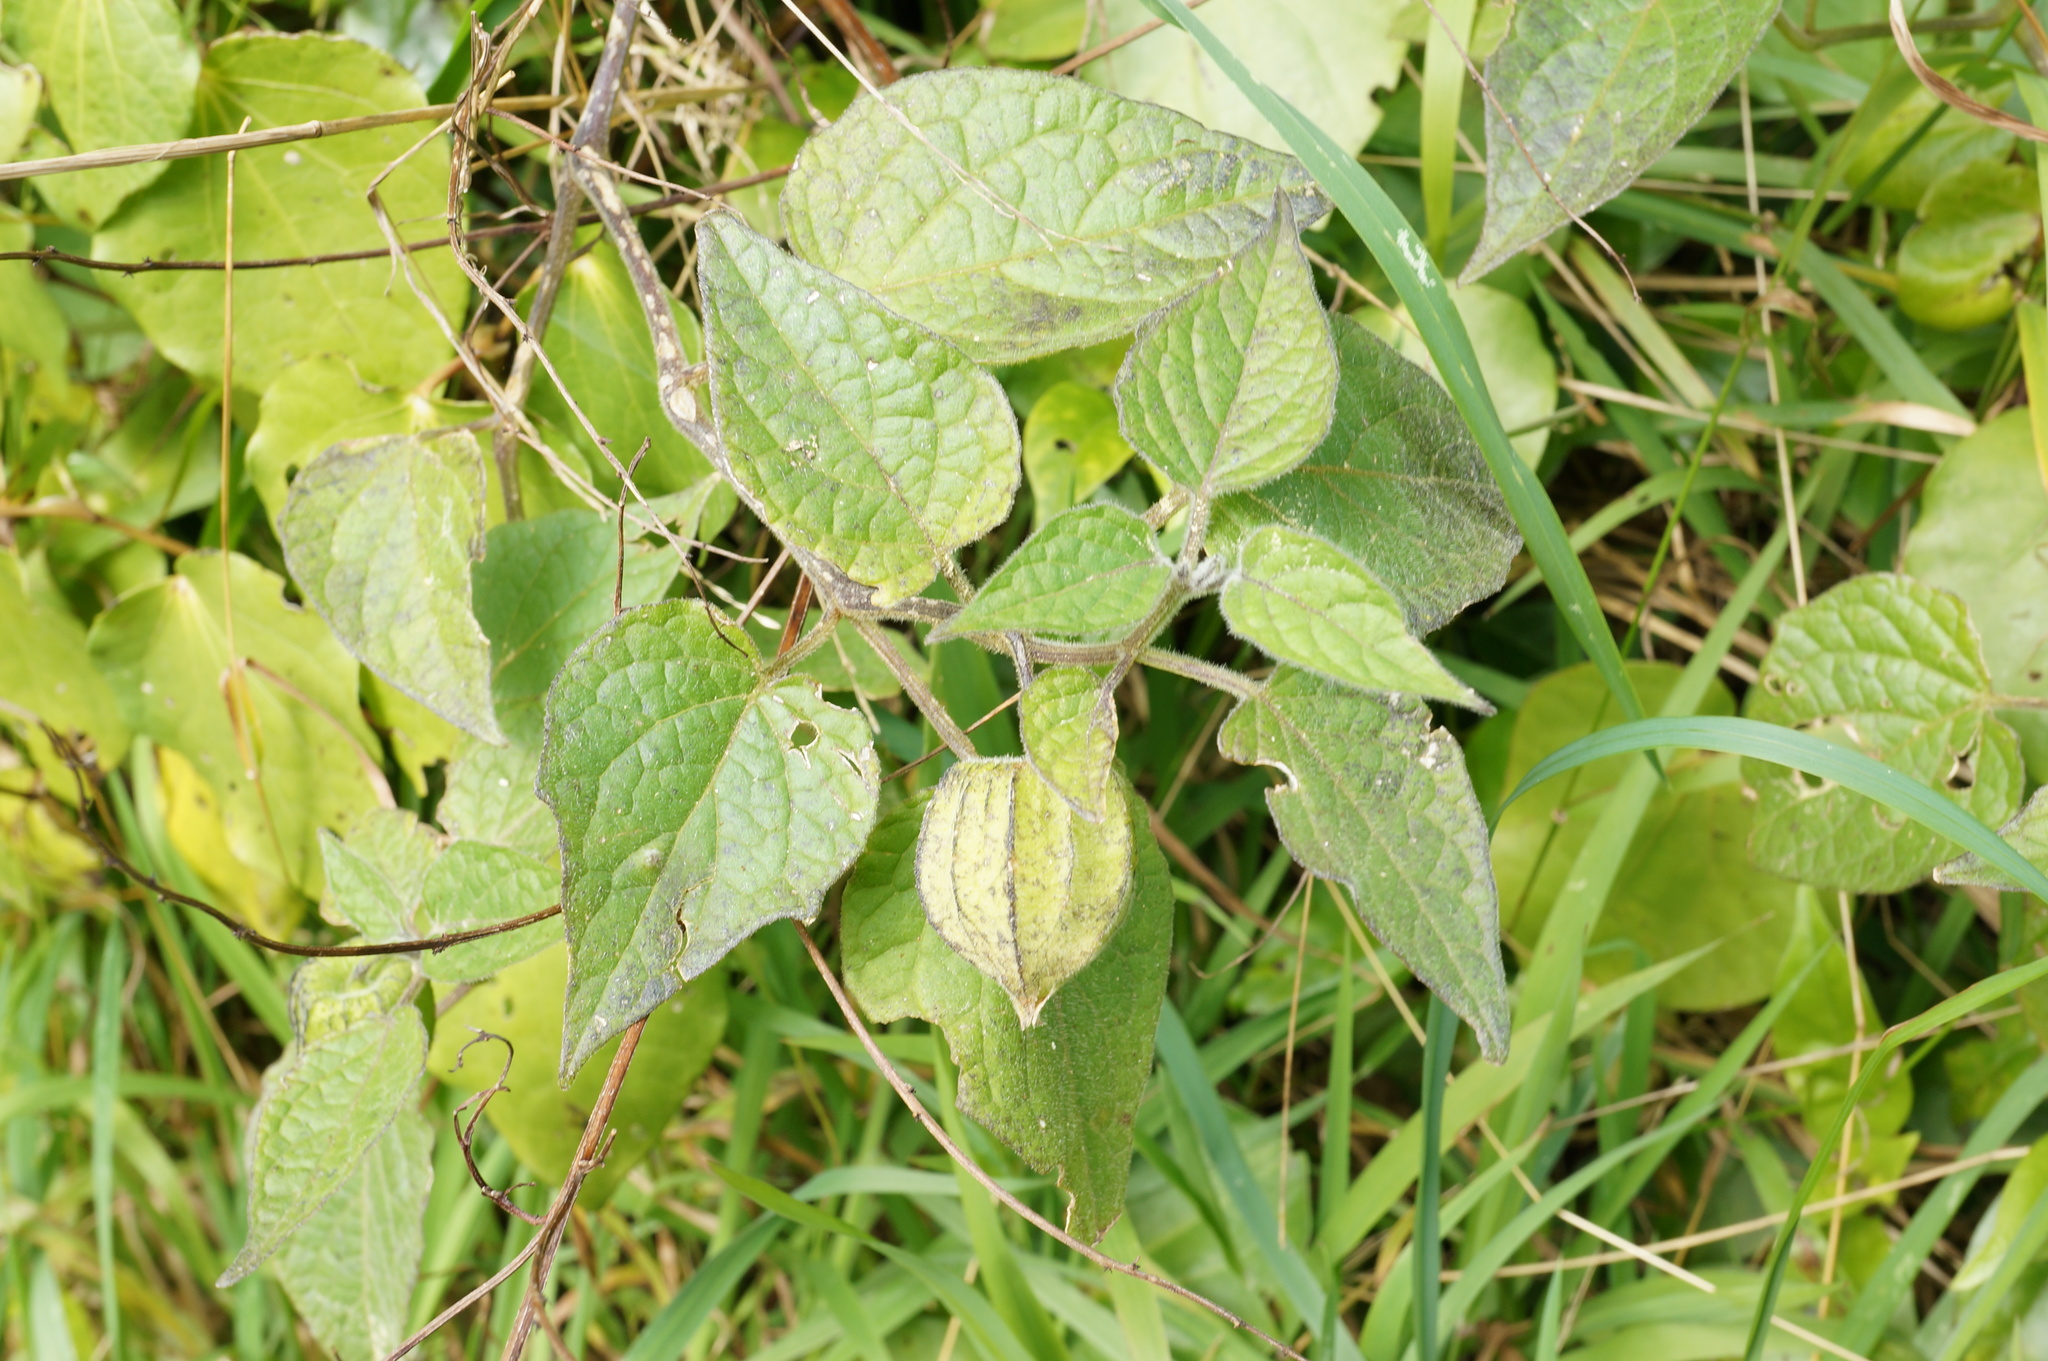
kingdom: Plantae
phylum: Tracheophyta
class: Magnoliopsida
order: Solanales
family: Solanaceae
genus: Physalis
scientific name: Physalis peruviana
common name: Cape-gooseberry
